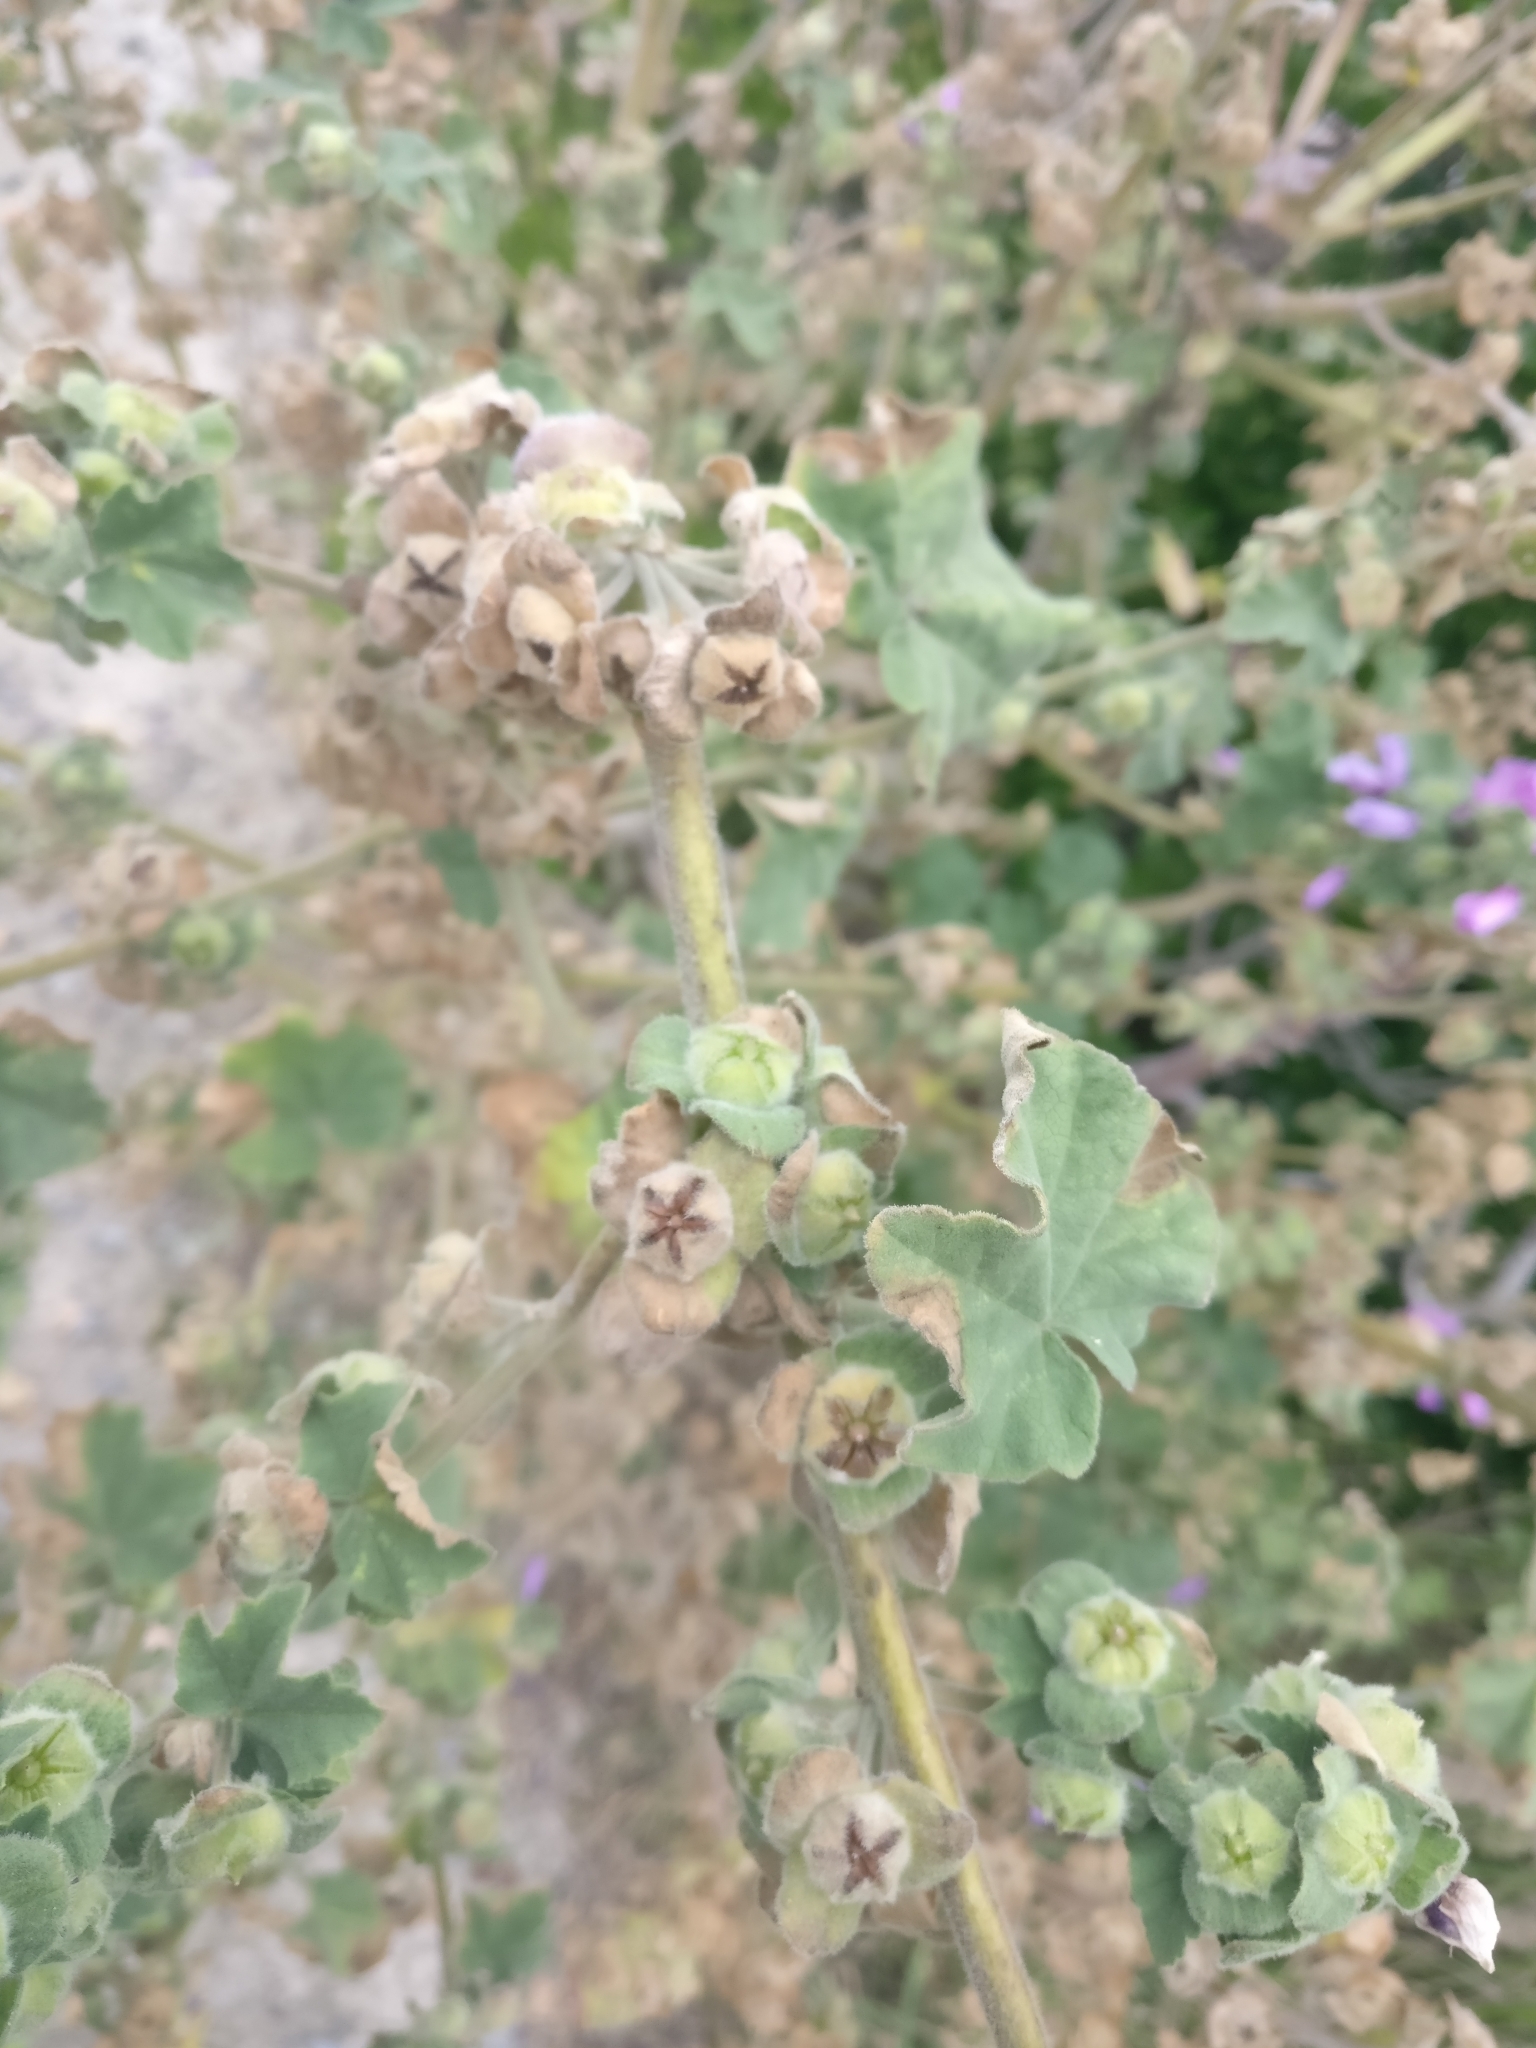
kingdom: Plantae
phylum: Tracheophyta
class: Magnoliopsida
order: Malvales
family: Malvaceae
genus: Malva
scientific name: Malva arborea
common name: Tree mallow
